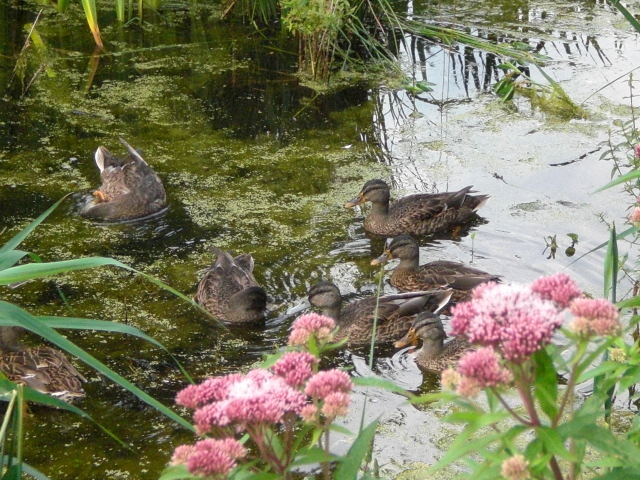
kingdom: Animalia
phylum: Chordata
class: Aves
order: Anseriformes
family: Anatidae
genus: Anas
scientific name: Anas platyrhynchos
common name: Mallard
